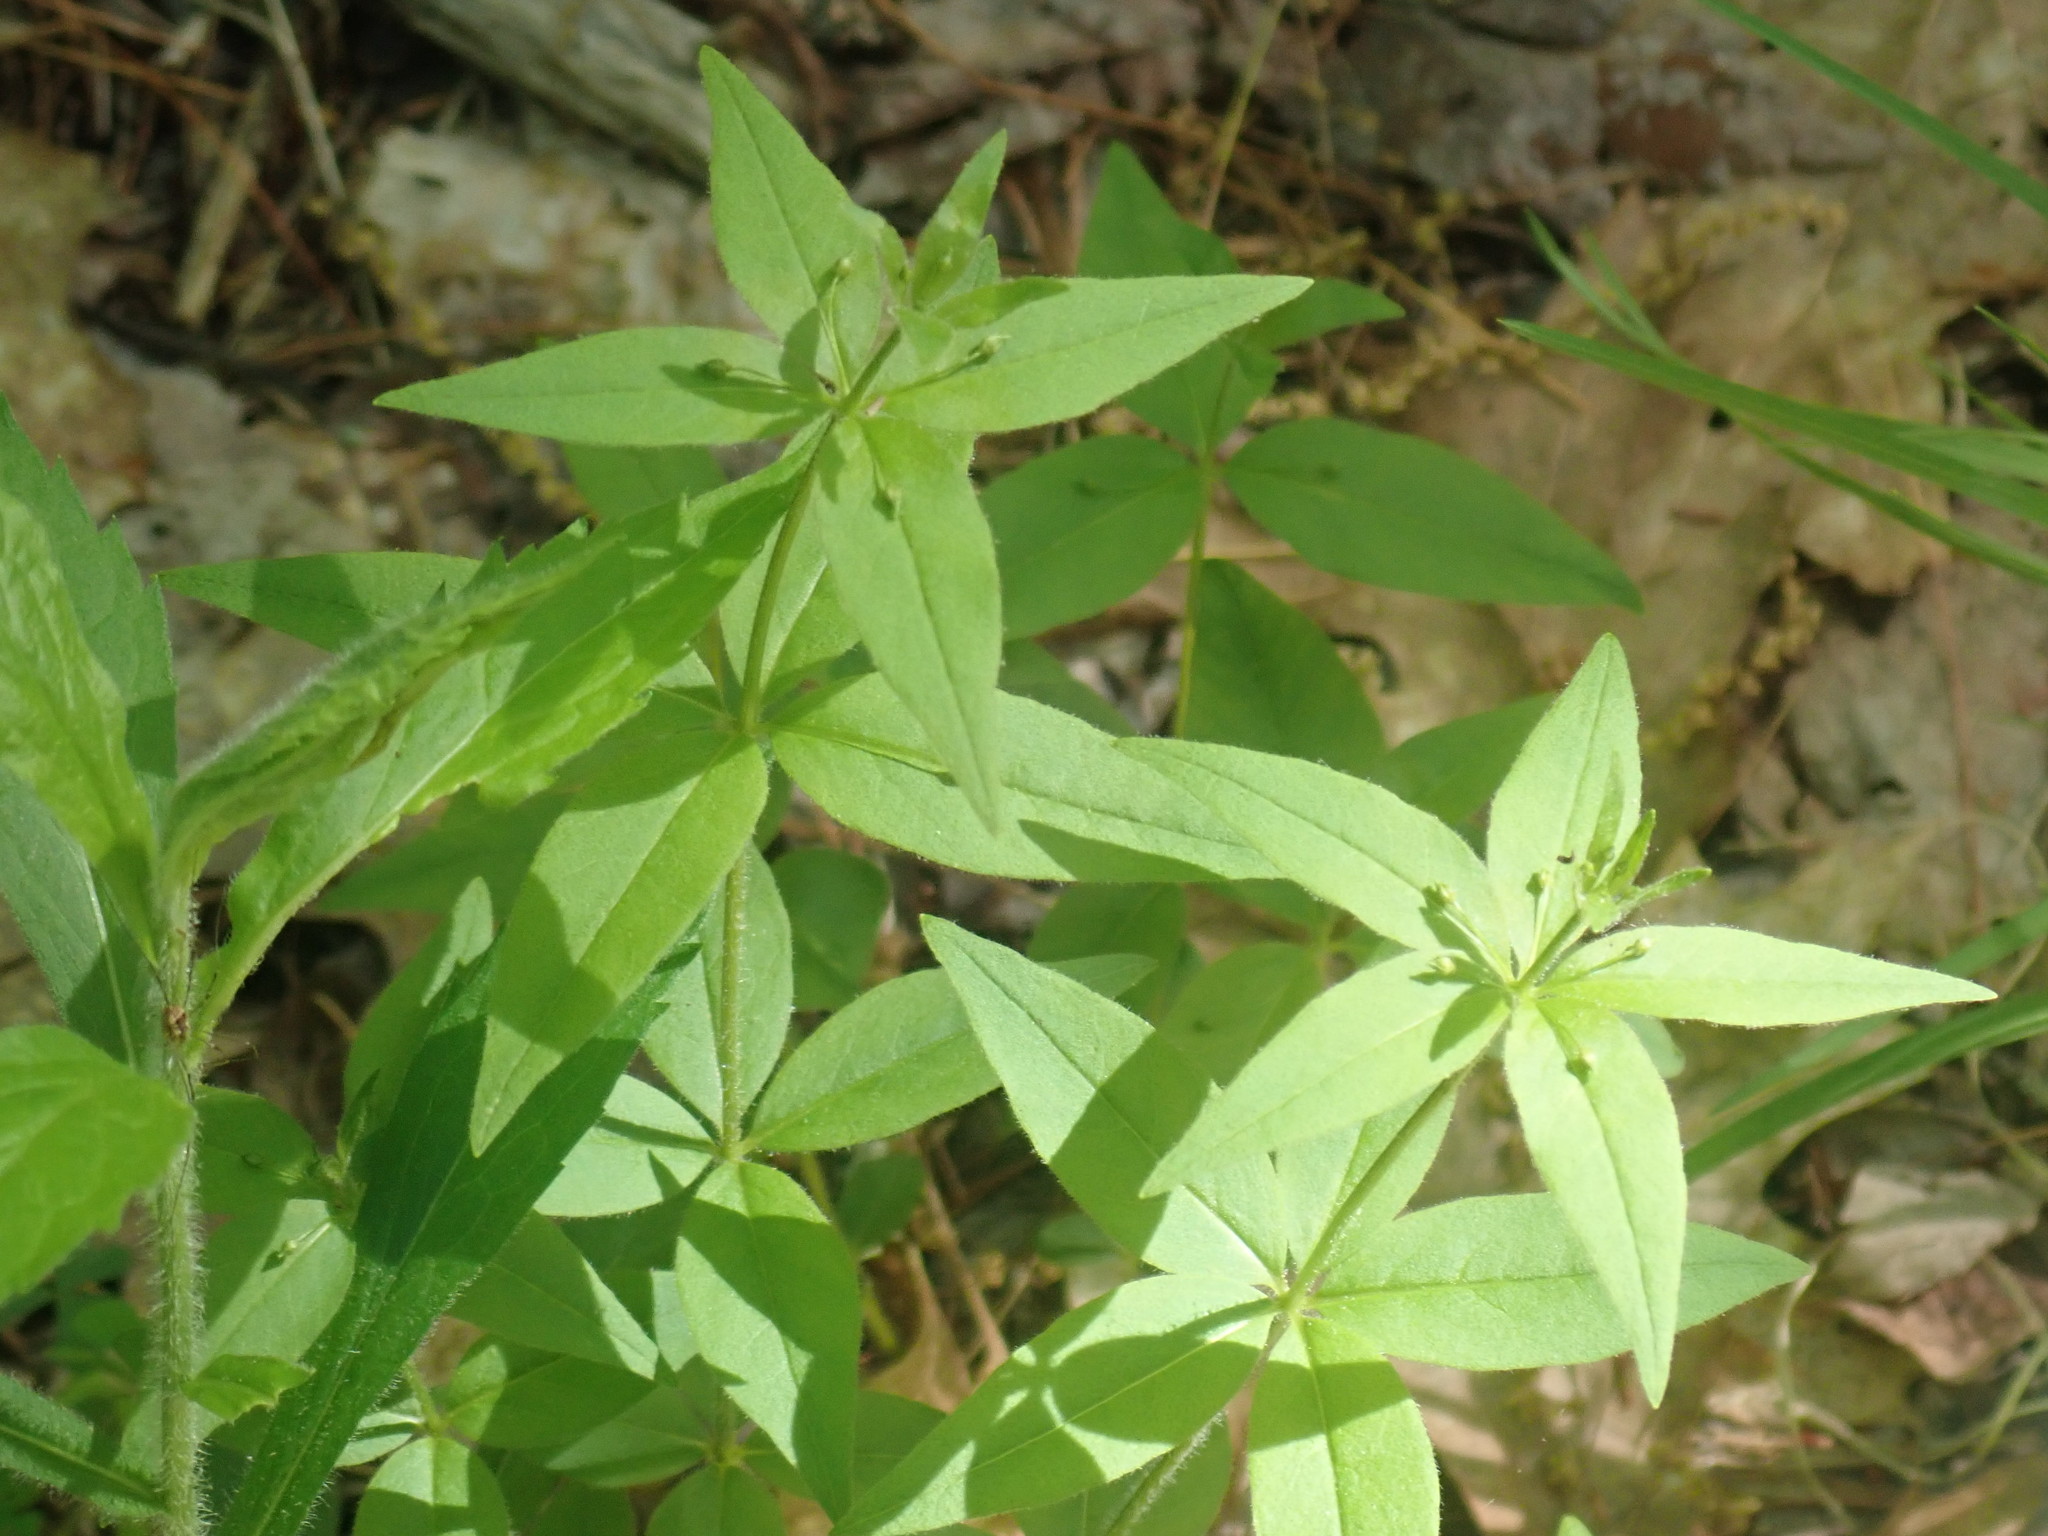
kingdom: Plantae
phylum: Tracheophyta
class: Magnoliopsida
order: Ericales
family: Primulaceae
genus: Lysimachia
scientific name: Lysimachia quadrifolia
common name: Whorled loosestrife
